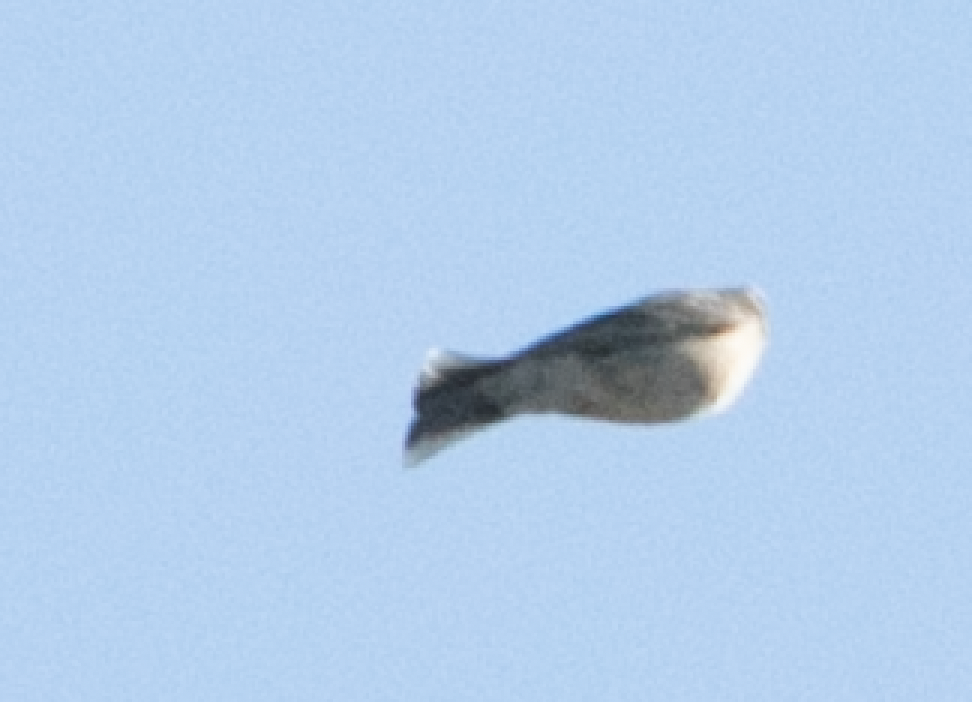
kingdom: Animalia
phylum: Chordata
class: Aves
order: Passeriformes
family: Motacillidae
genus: Anthus
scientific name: Anthus spinoletta
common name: Water pipit
